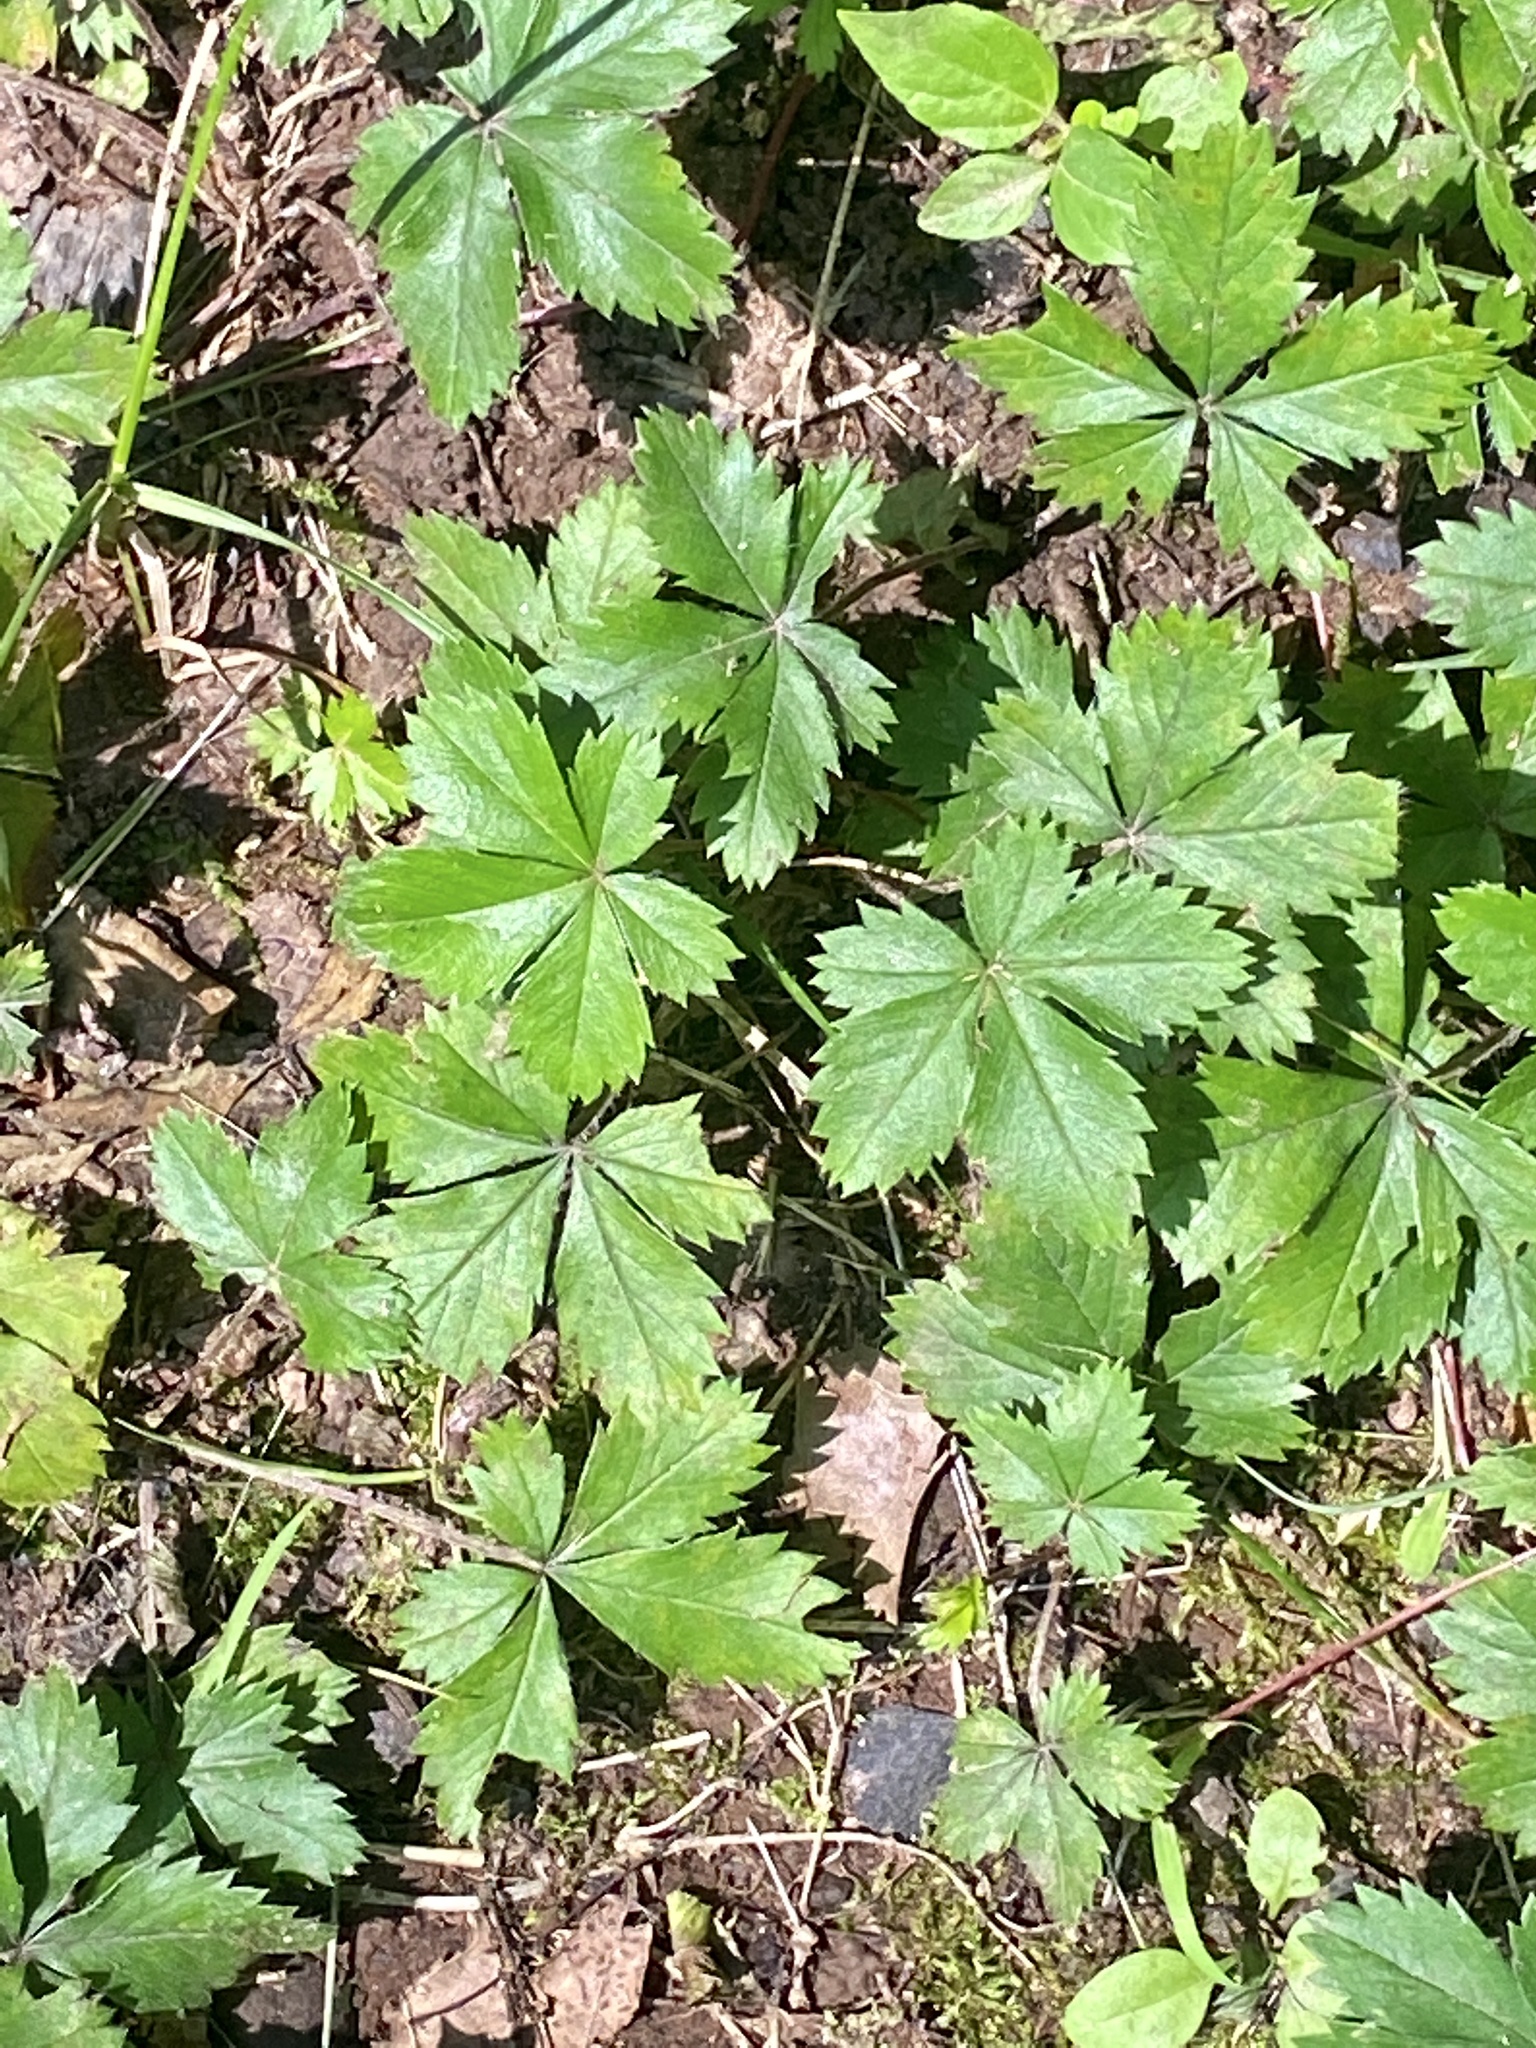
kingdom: Plantae
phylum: Tracheophyta
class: Magnoliopsida
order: Rosales
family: Rosaceae
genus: Potentilla
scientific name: Potentilla canadensis
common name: Canada cinquefoil
